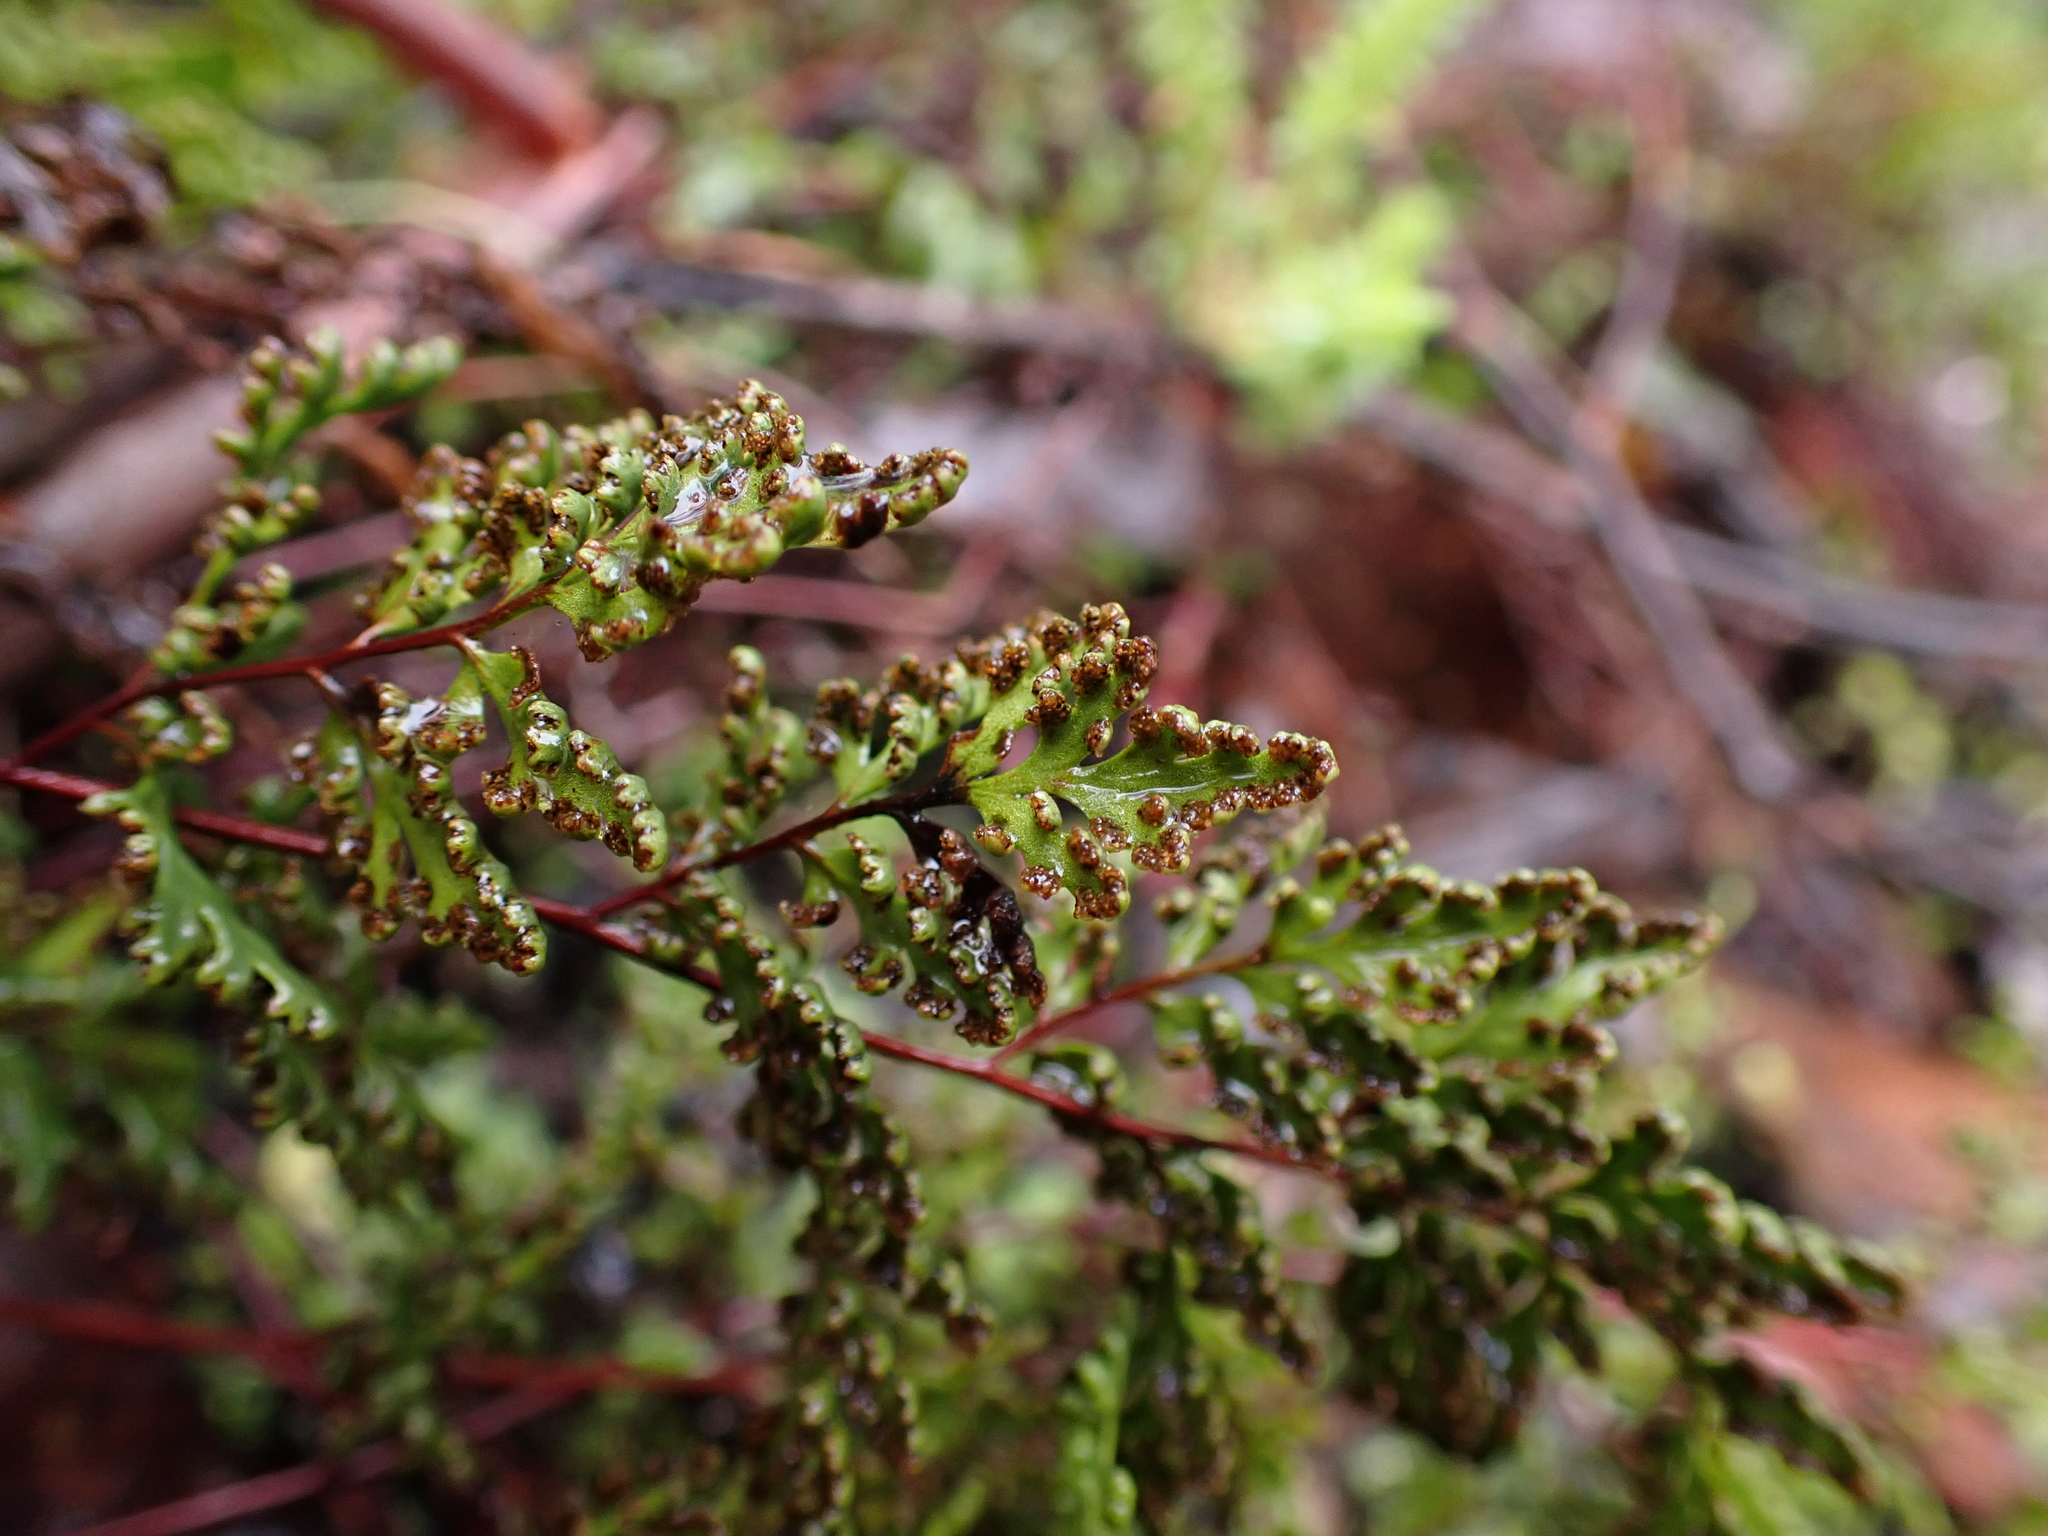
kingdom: Plantae
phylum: Tracheophyta
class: Polypodiopsida
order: Polypodiales
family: Pteridaceae
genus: Cheilanthes
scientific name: Cheilanthes austrotenuifolia
